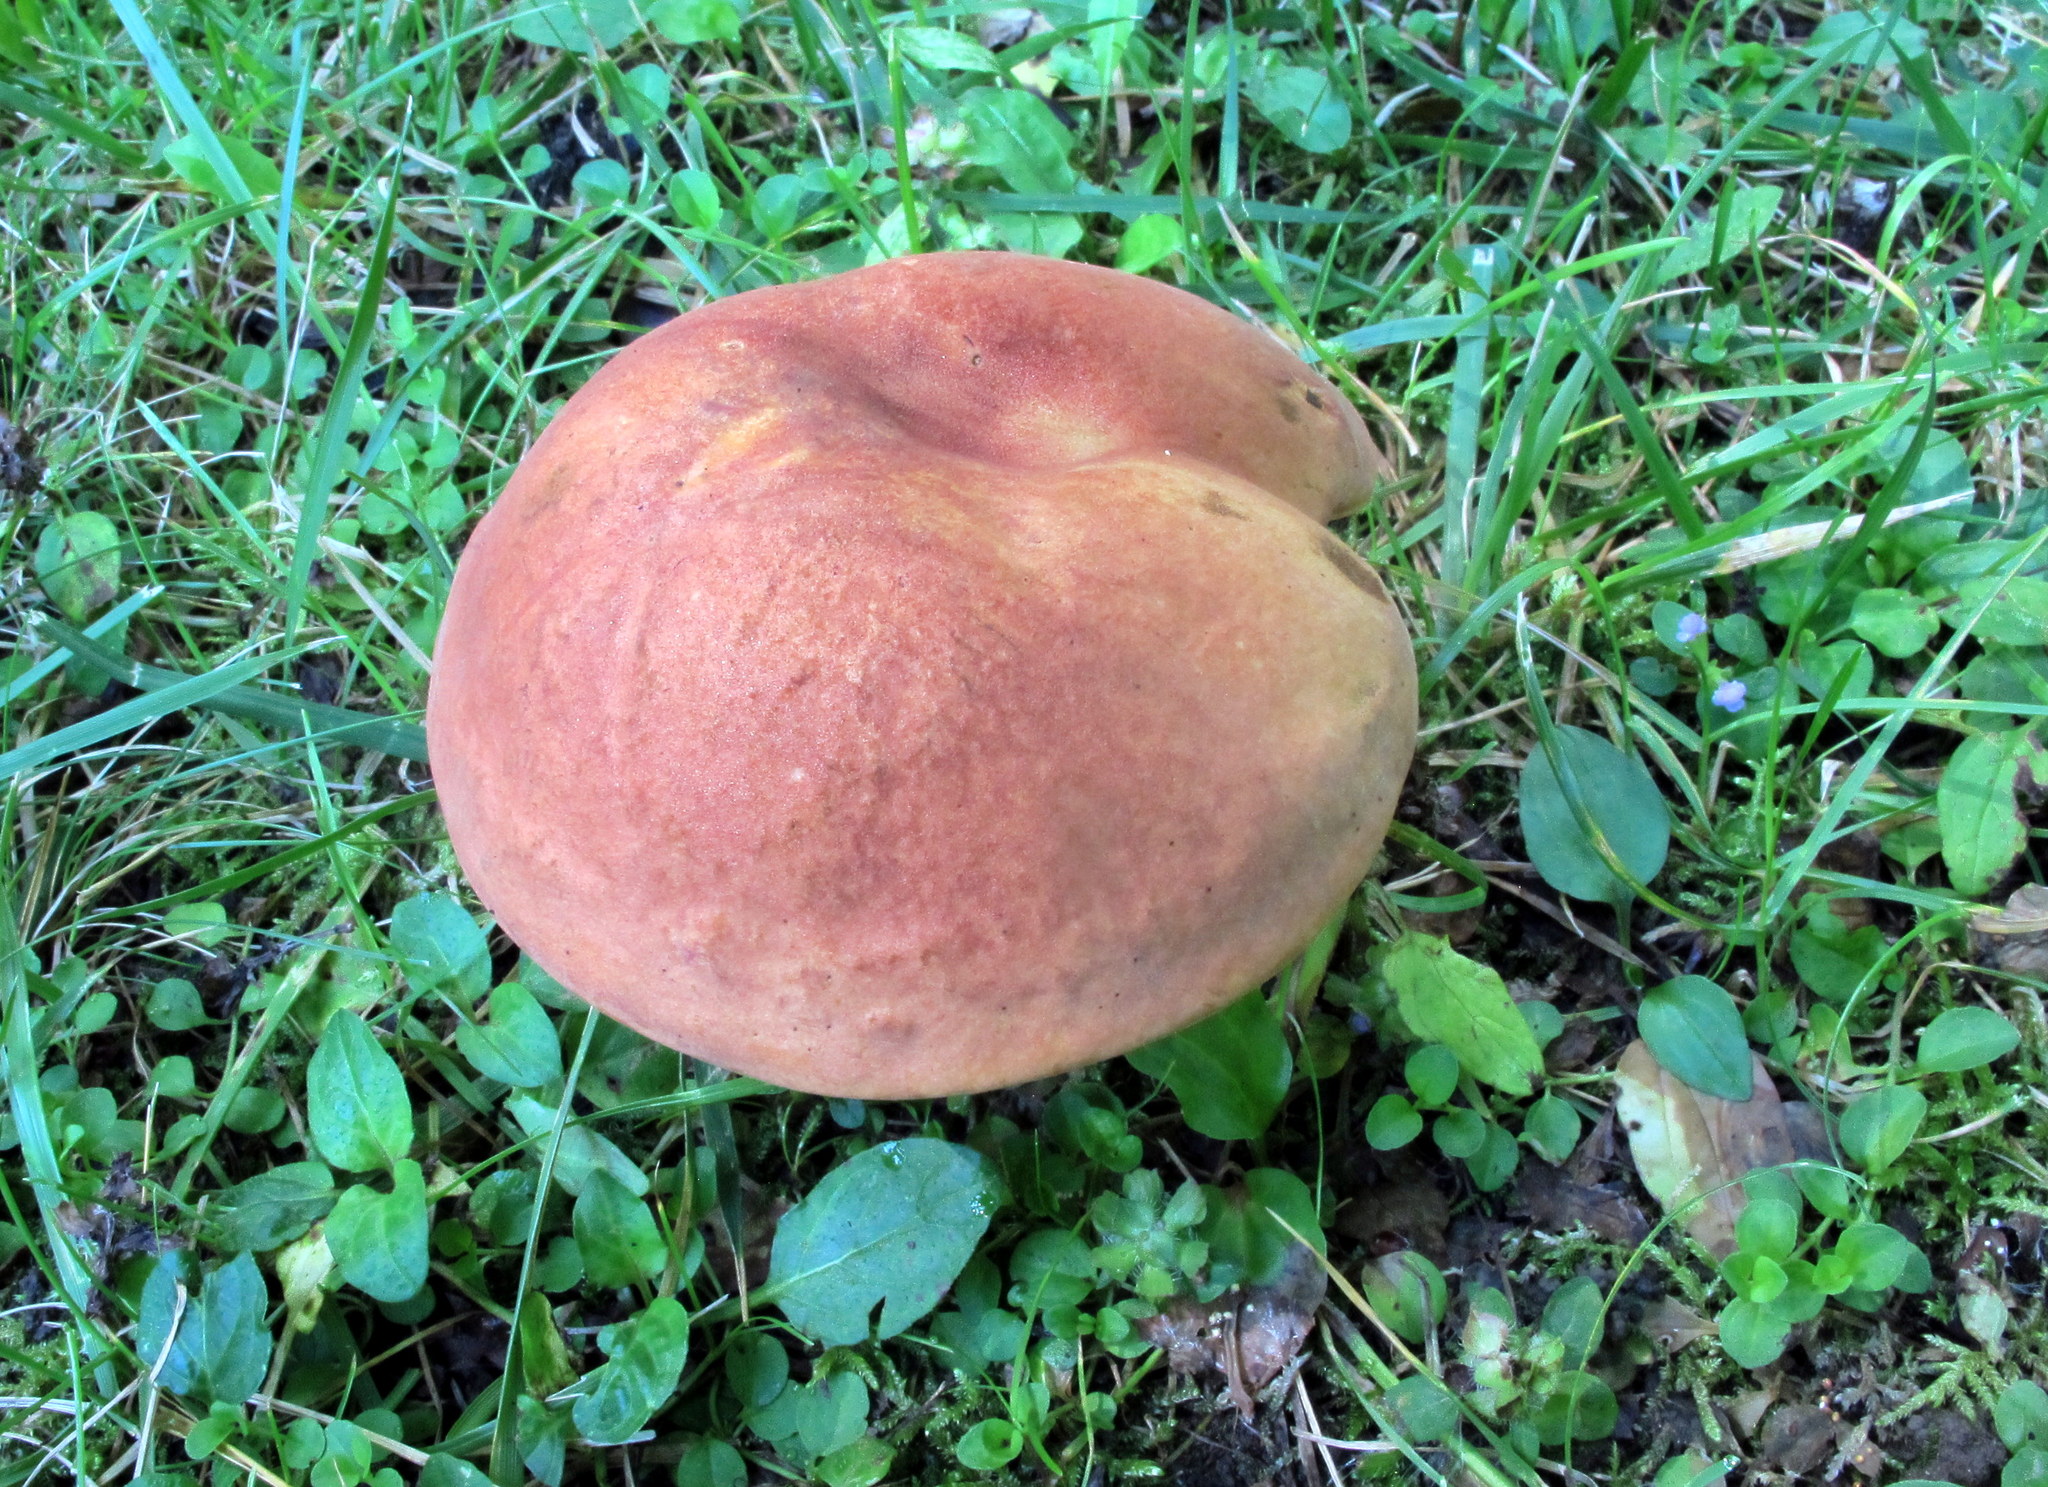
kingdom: Fungi
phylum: Basidiomycota
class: Agaricomycetes
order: Boletales
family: Boletaceae
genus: Boletus
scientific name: Boletus subvelutipes
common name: Red-mouth bolete
